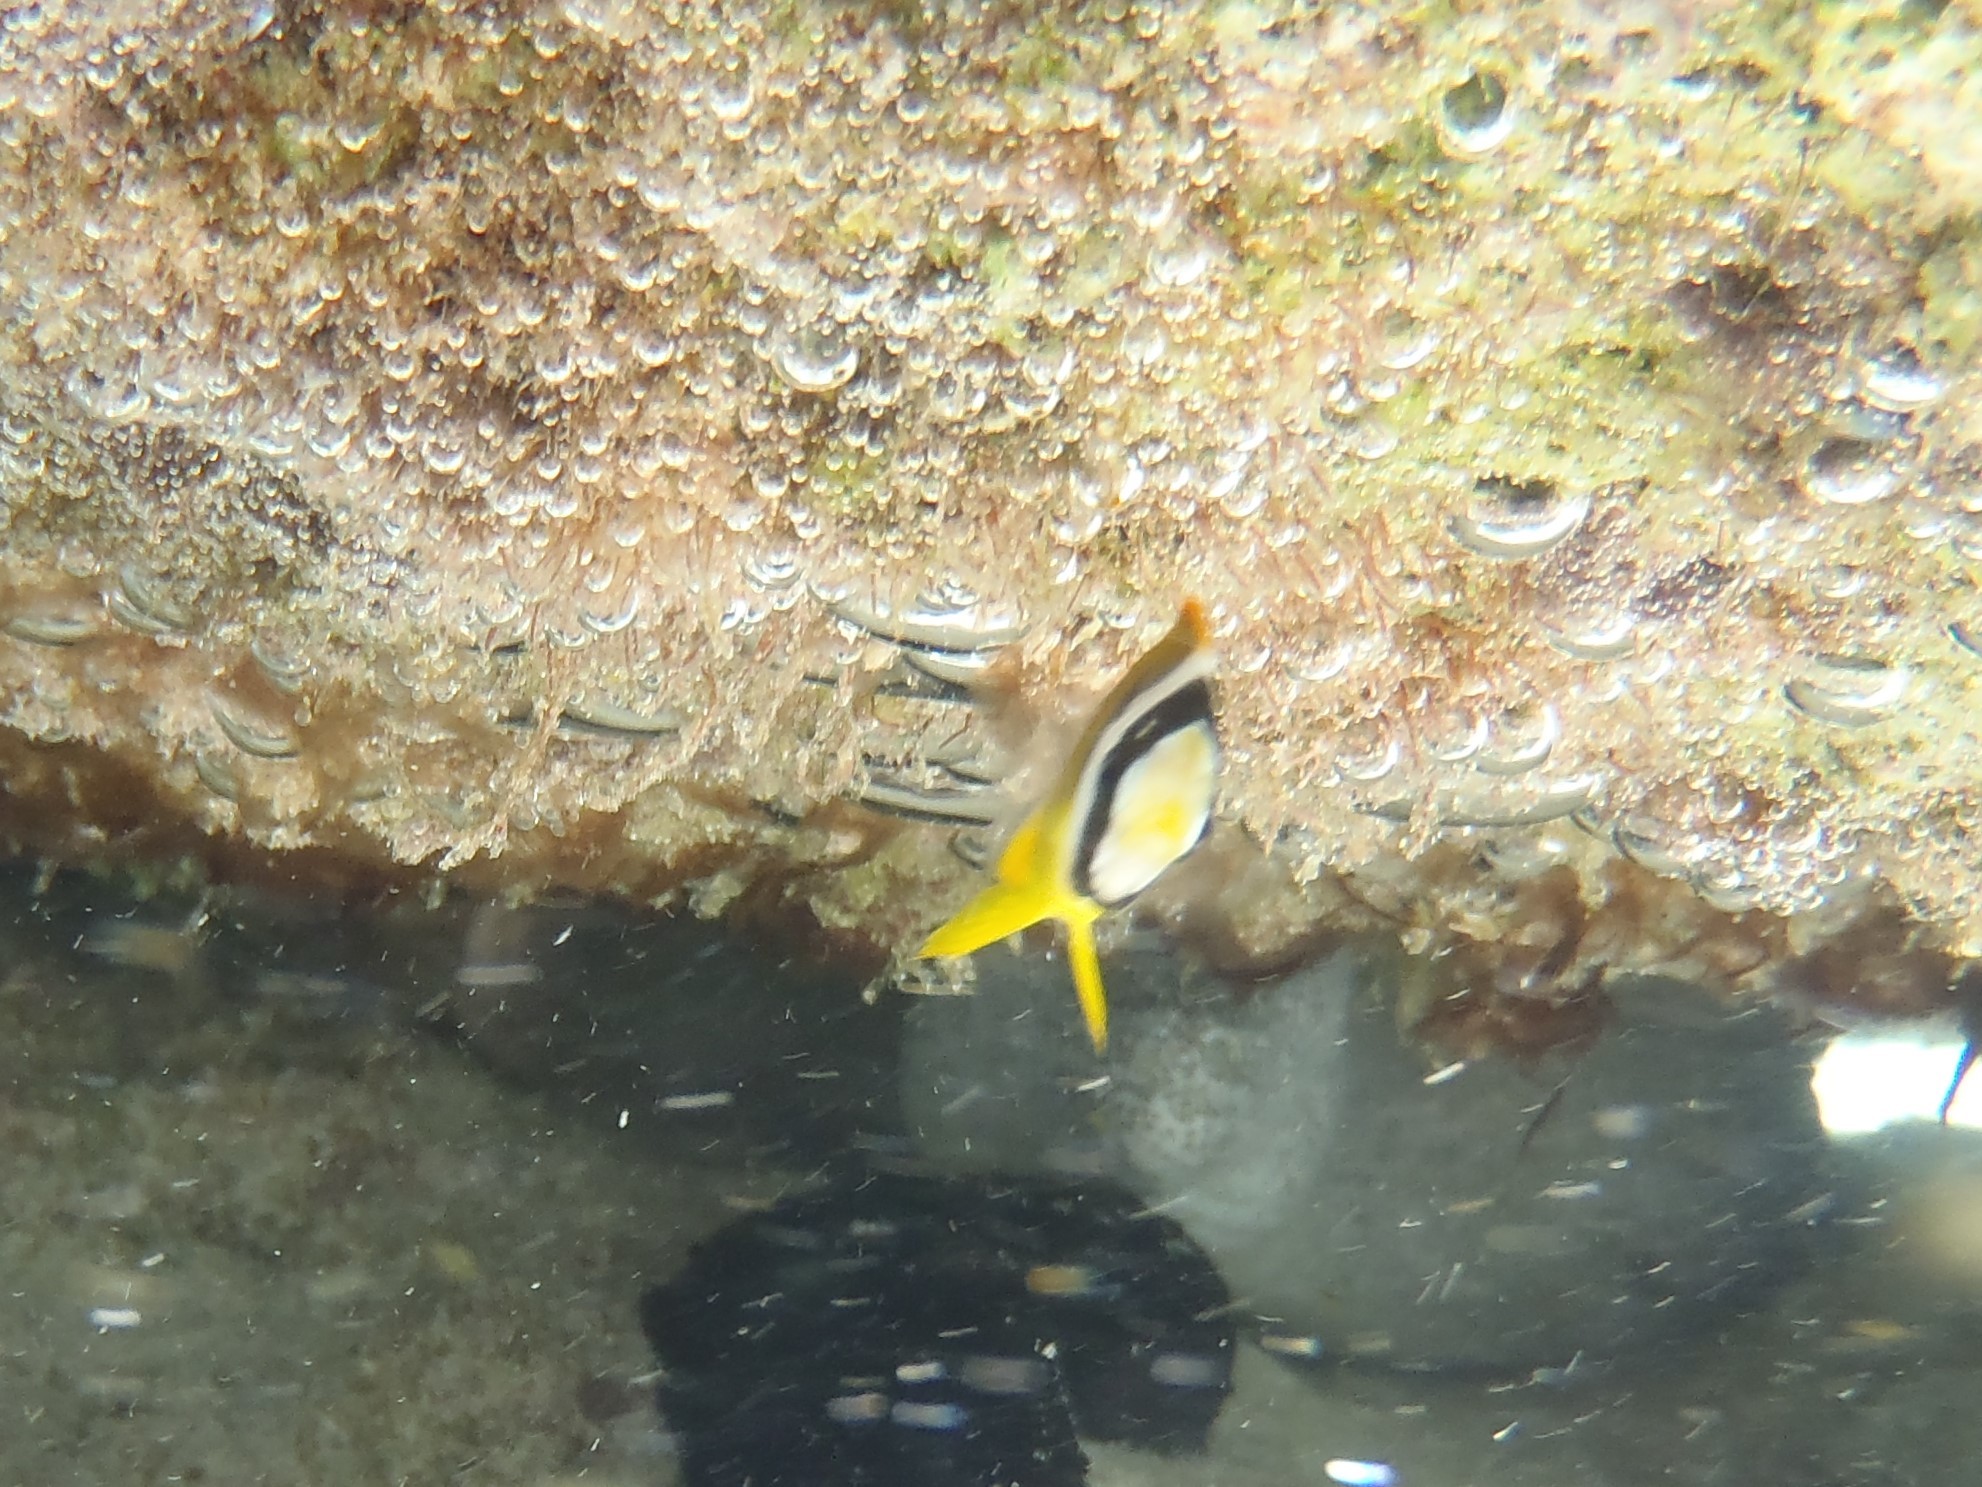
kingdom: Animalia
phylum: Chordata
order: Perciformes
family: Chaetodontidae
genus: Chaetodon
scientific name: Chaetodon lunula
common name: Raccoon butterflyfish
